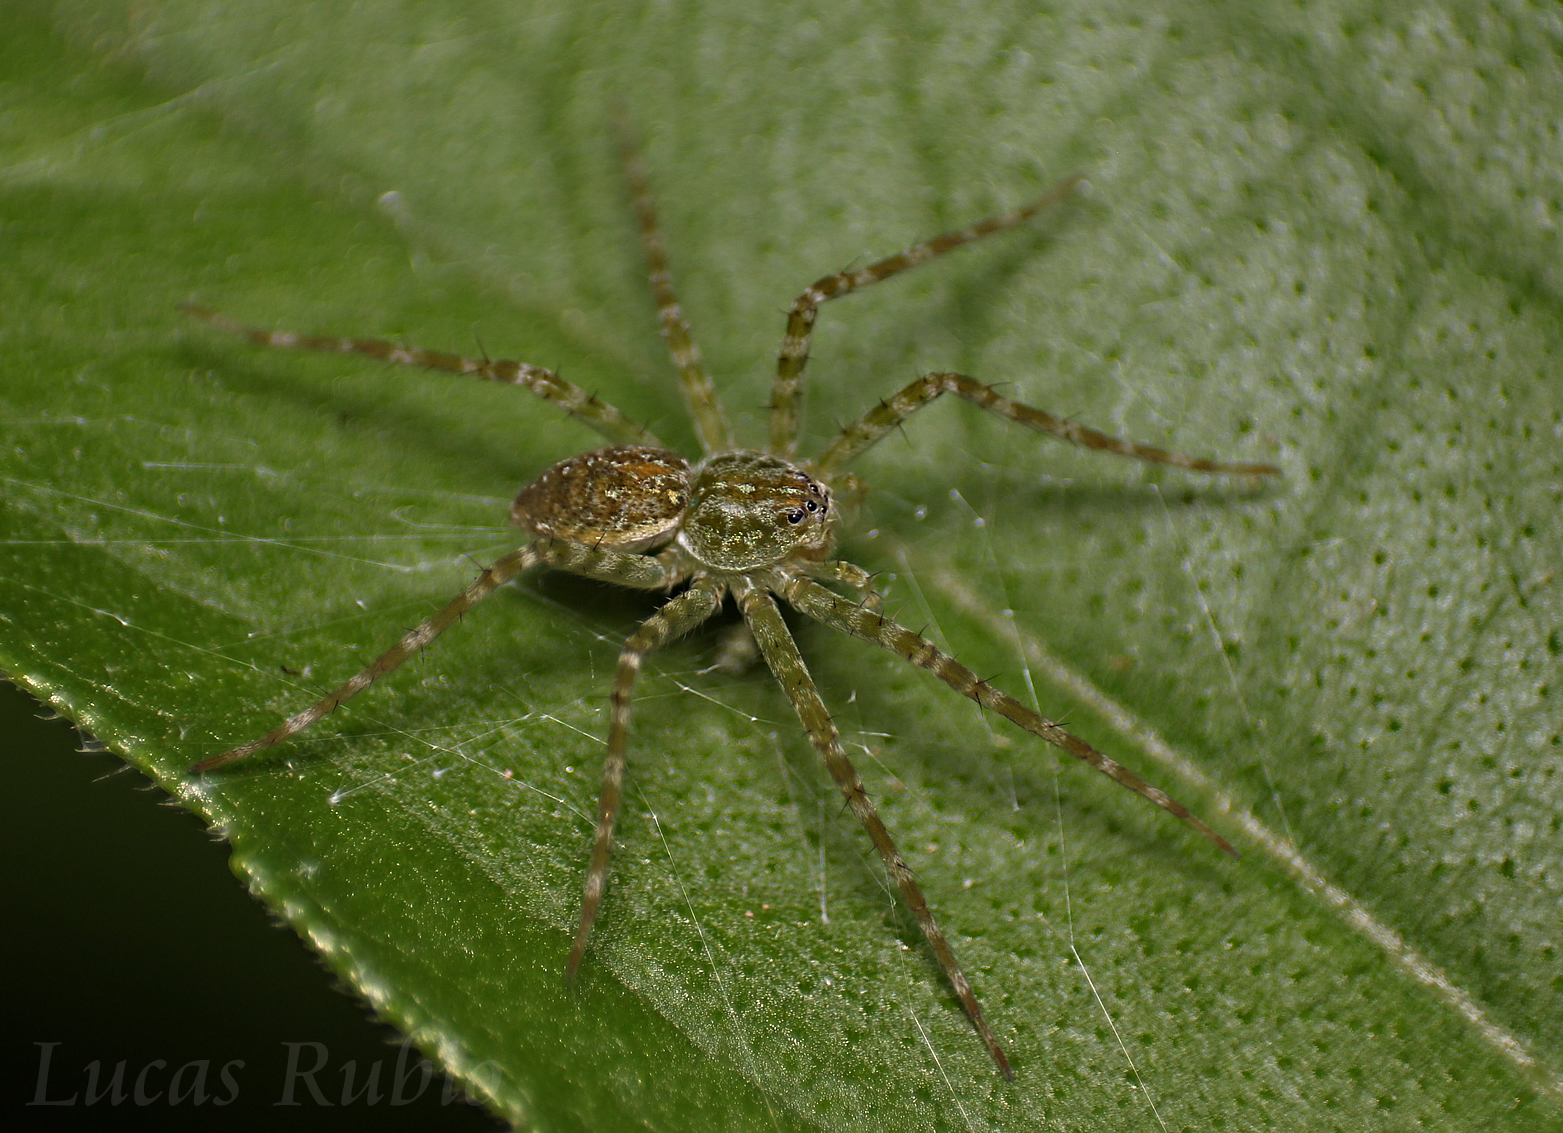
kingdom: Animalia
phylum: Arthropoda
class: Arachnida
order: Araneae
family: Pisauridae
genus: Thaumasia
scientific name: Thaumasia velox
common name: Nursery web spiders
